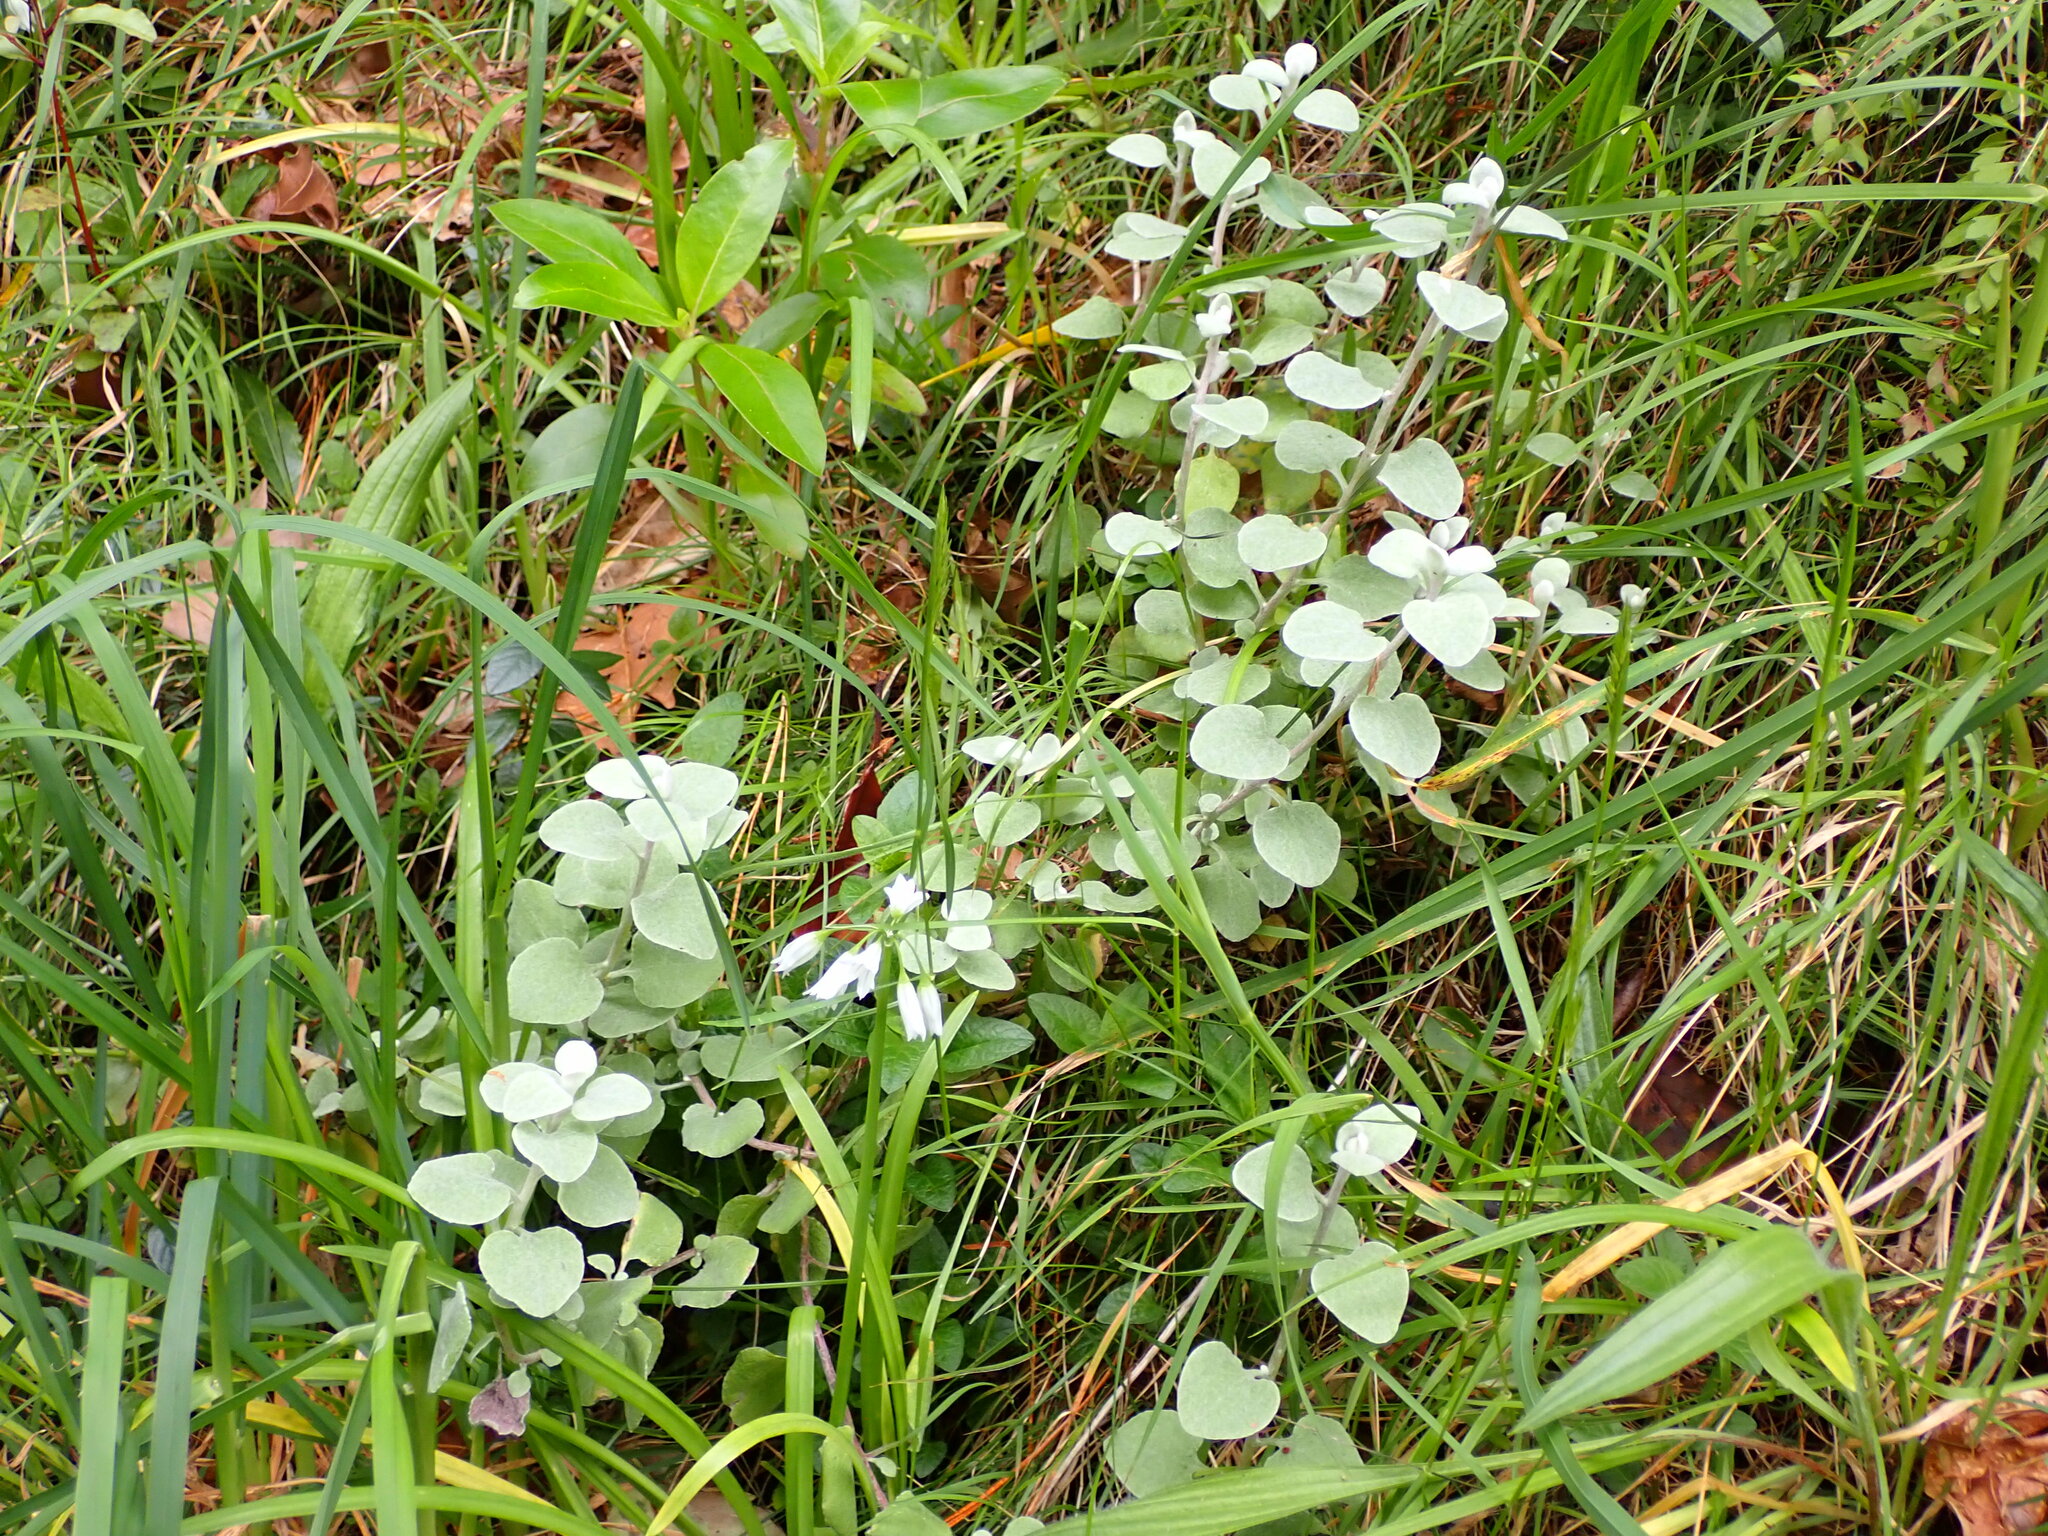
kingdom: Plantae
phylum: Tracheophyta
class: Magnoliopsida
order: Asterales
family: Asteraceae
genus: Helichrysum
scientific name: Helichrysum petiolare
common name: Licorice-plant
